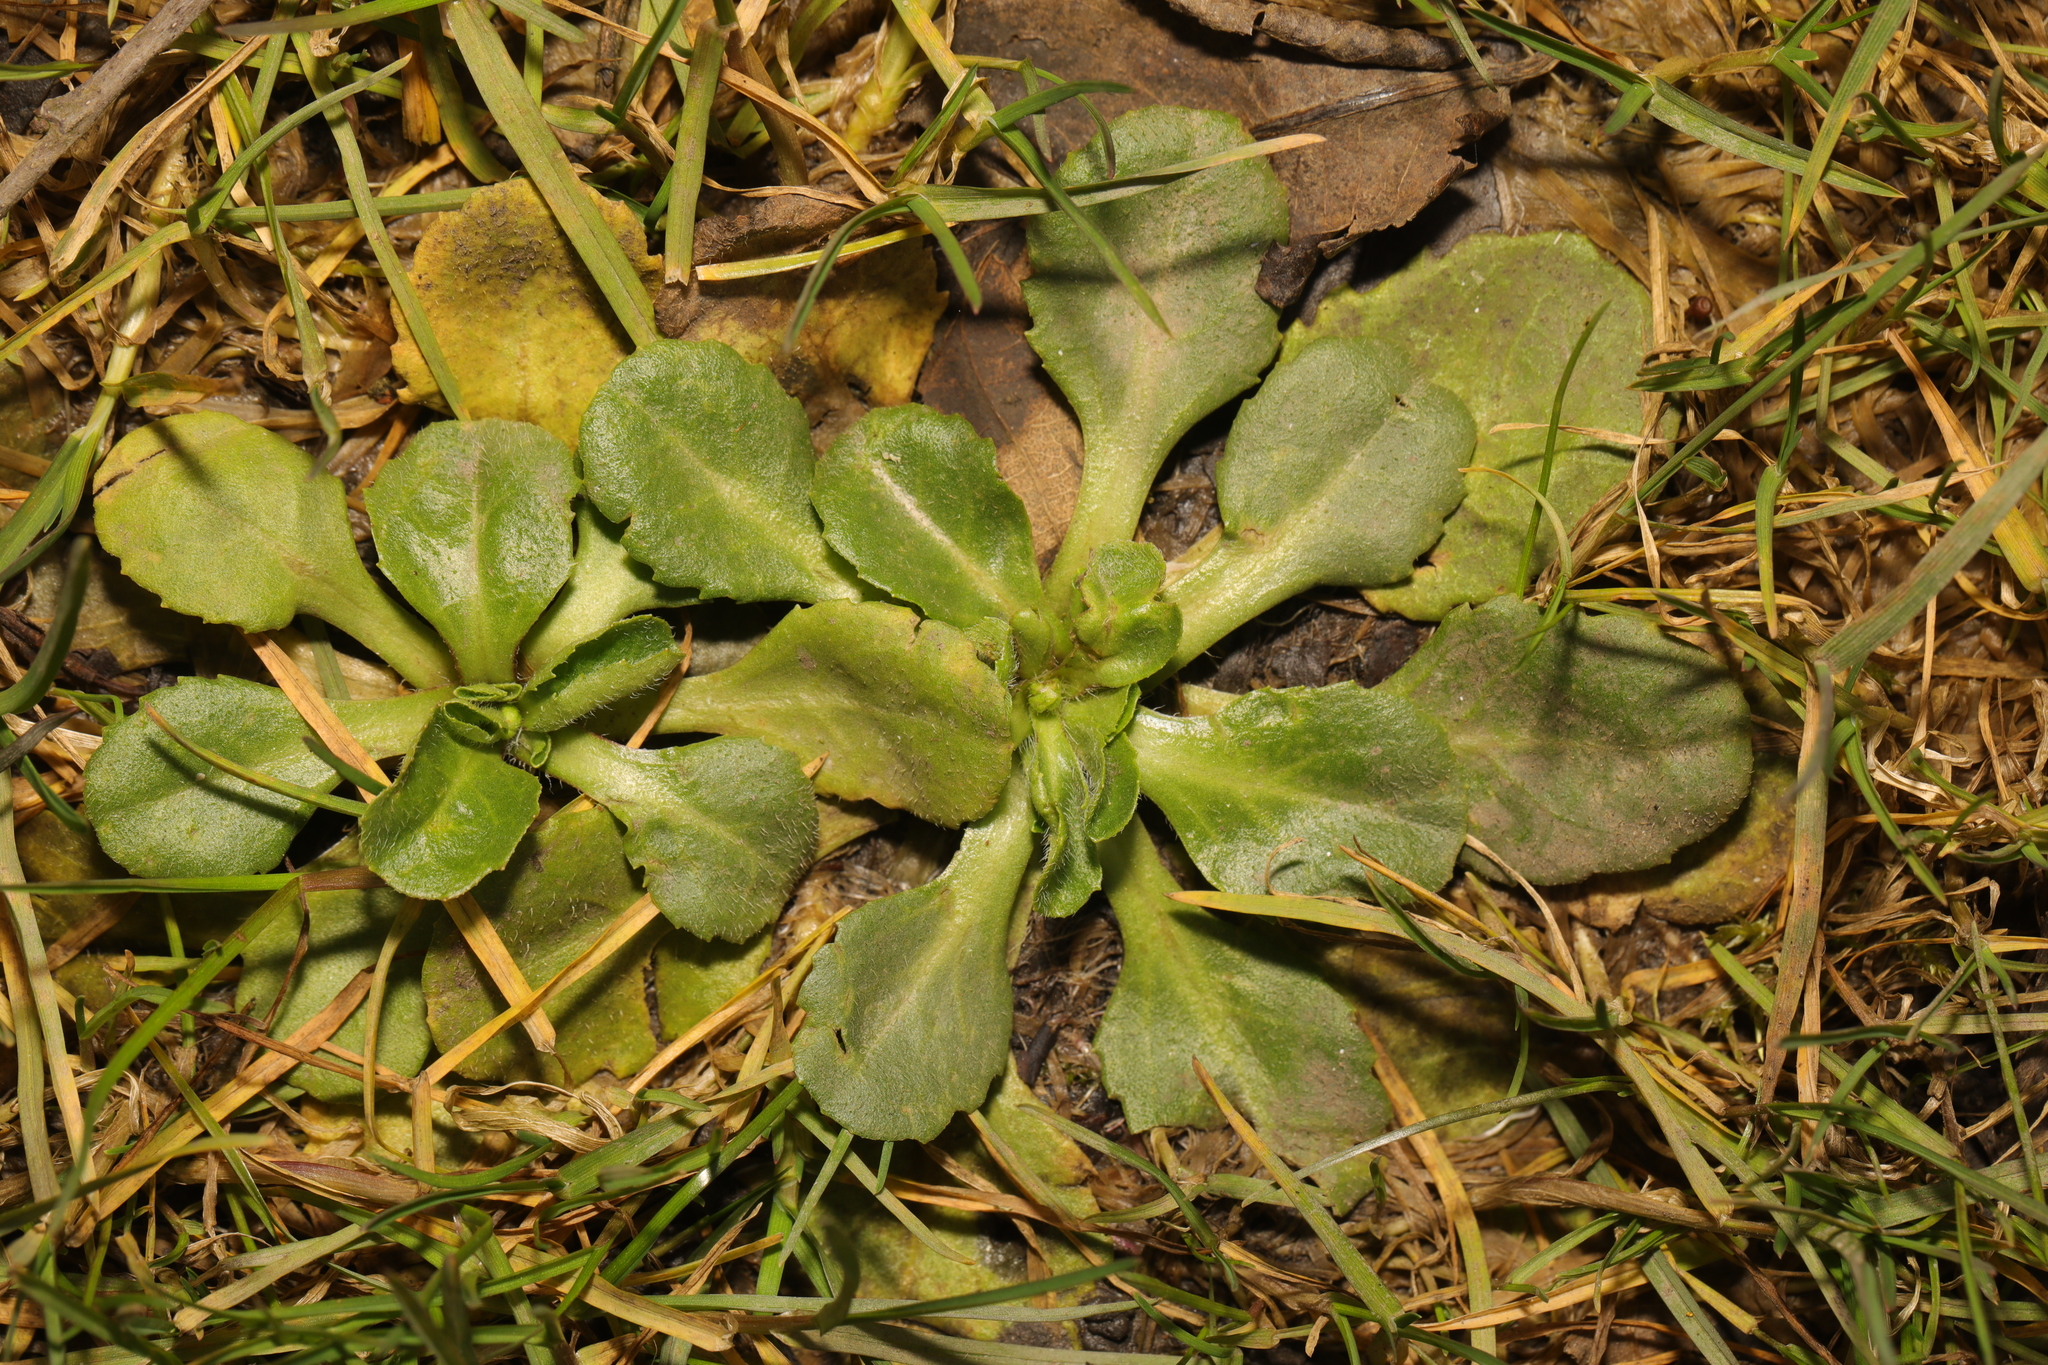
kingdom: Plantae
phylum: Tracheophyta
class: Magnoliopsida
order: Asterales
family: Asteraceae
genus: Bellis
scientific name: Bellis perennis
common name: Lawndaisy
